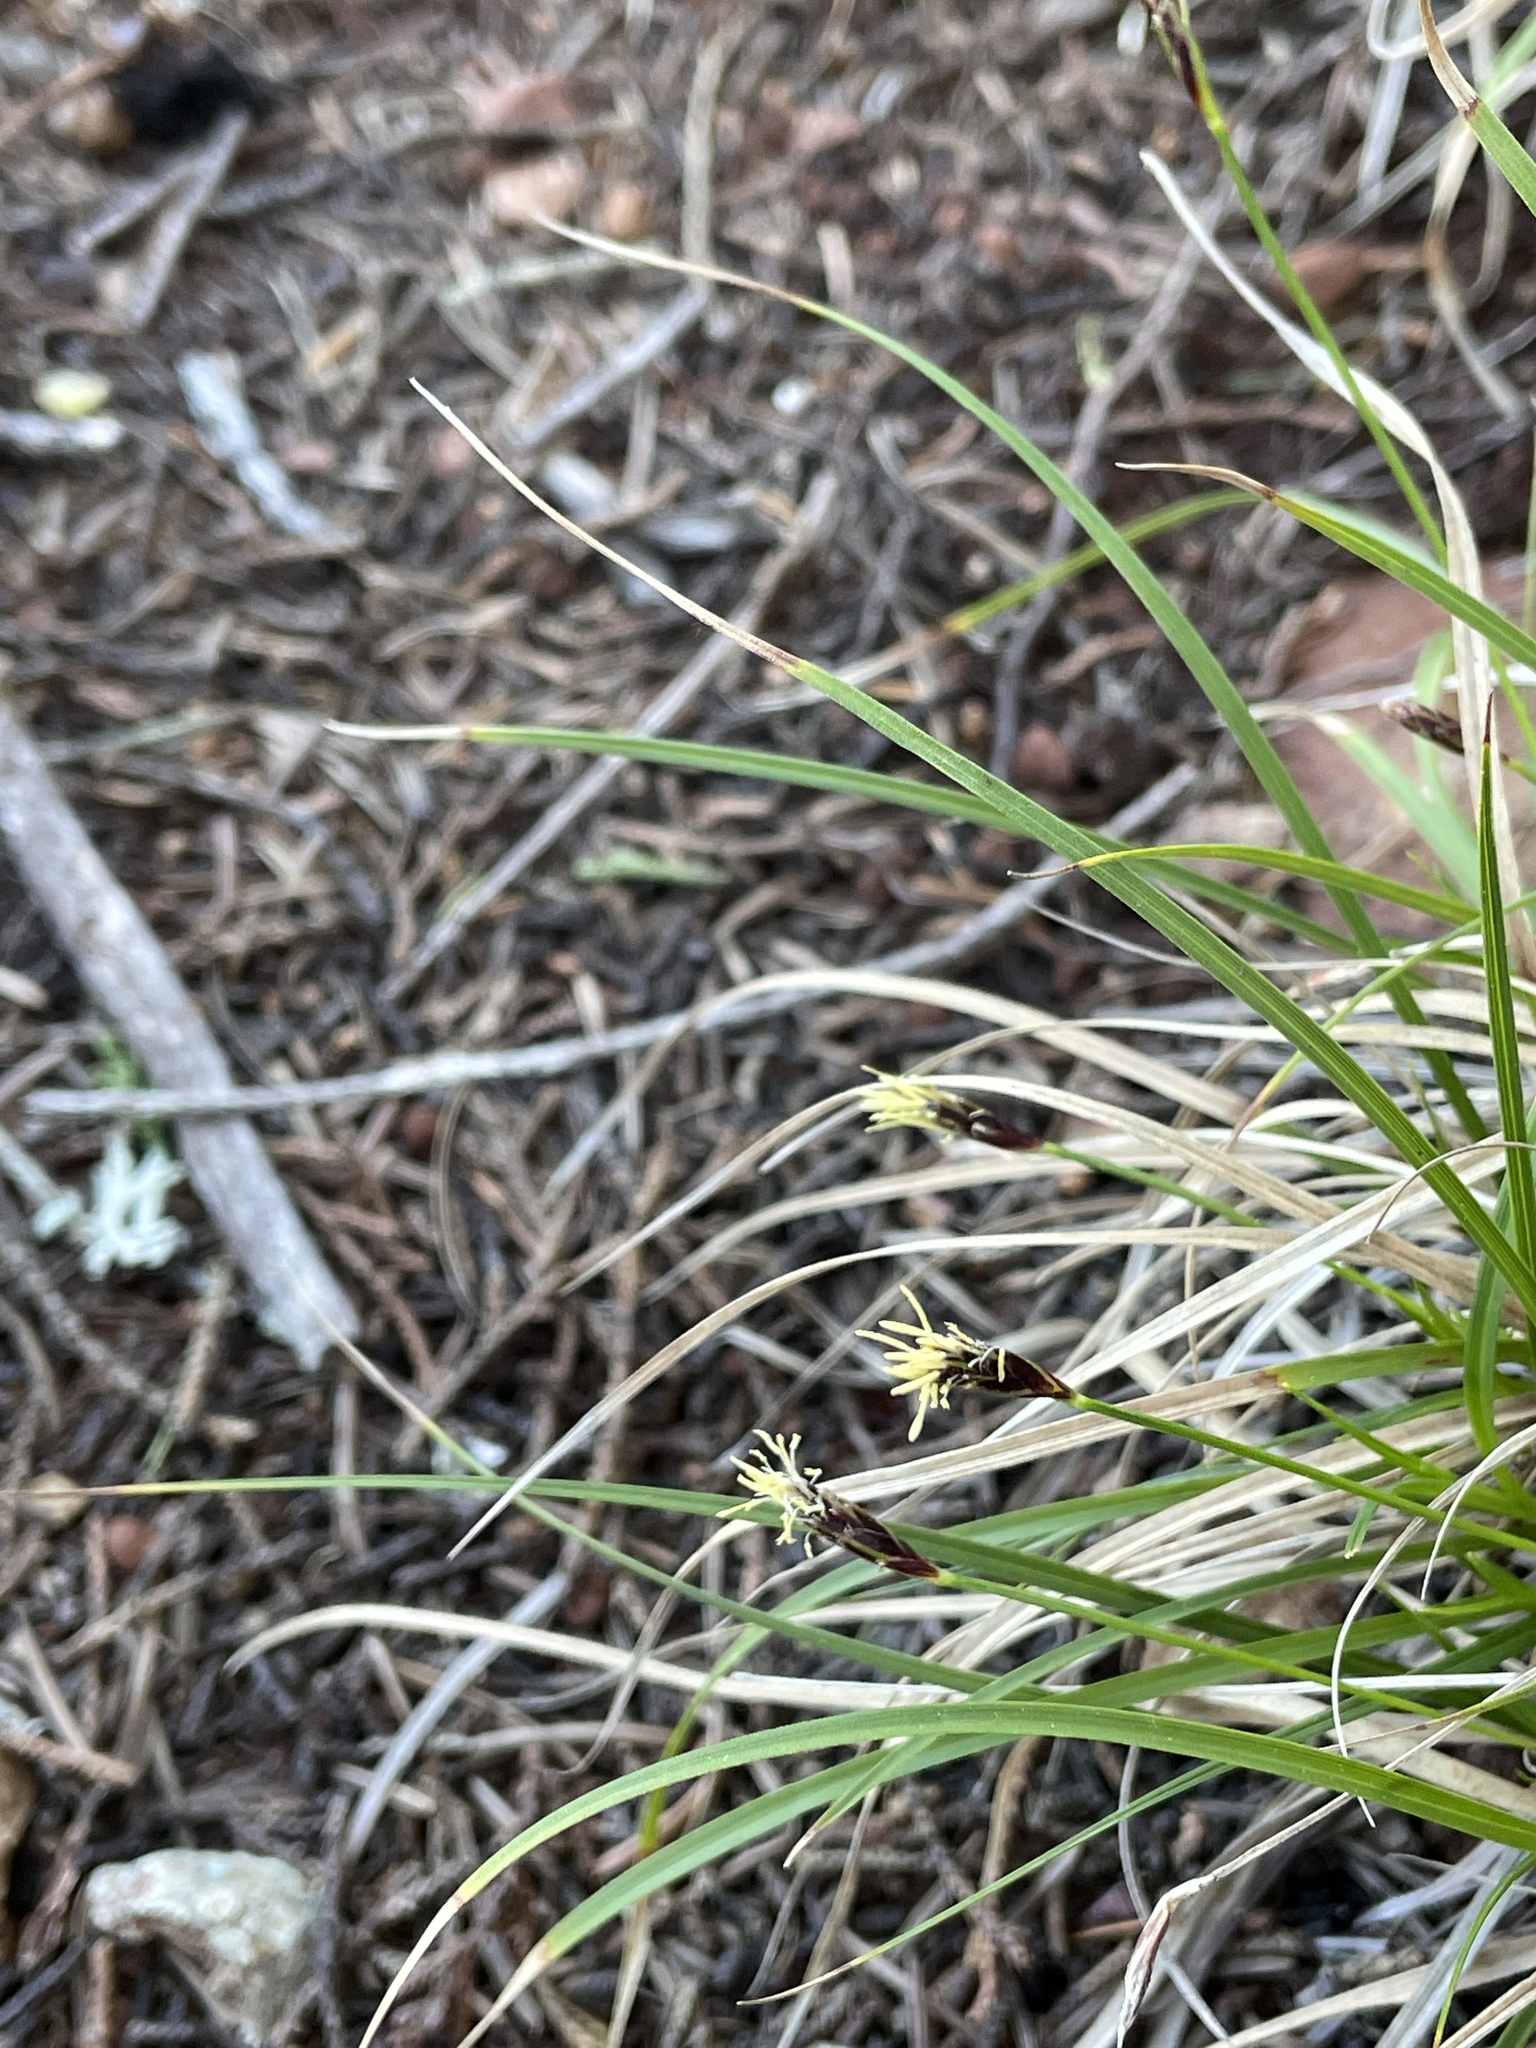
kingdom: Plantae
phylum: Tracheophyta
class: Liliopsida
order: Poales
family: Cyperaceae
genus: Carex
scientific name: Carex globosa
